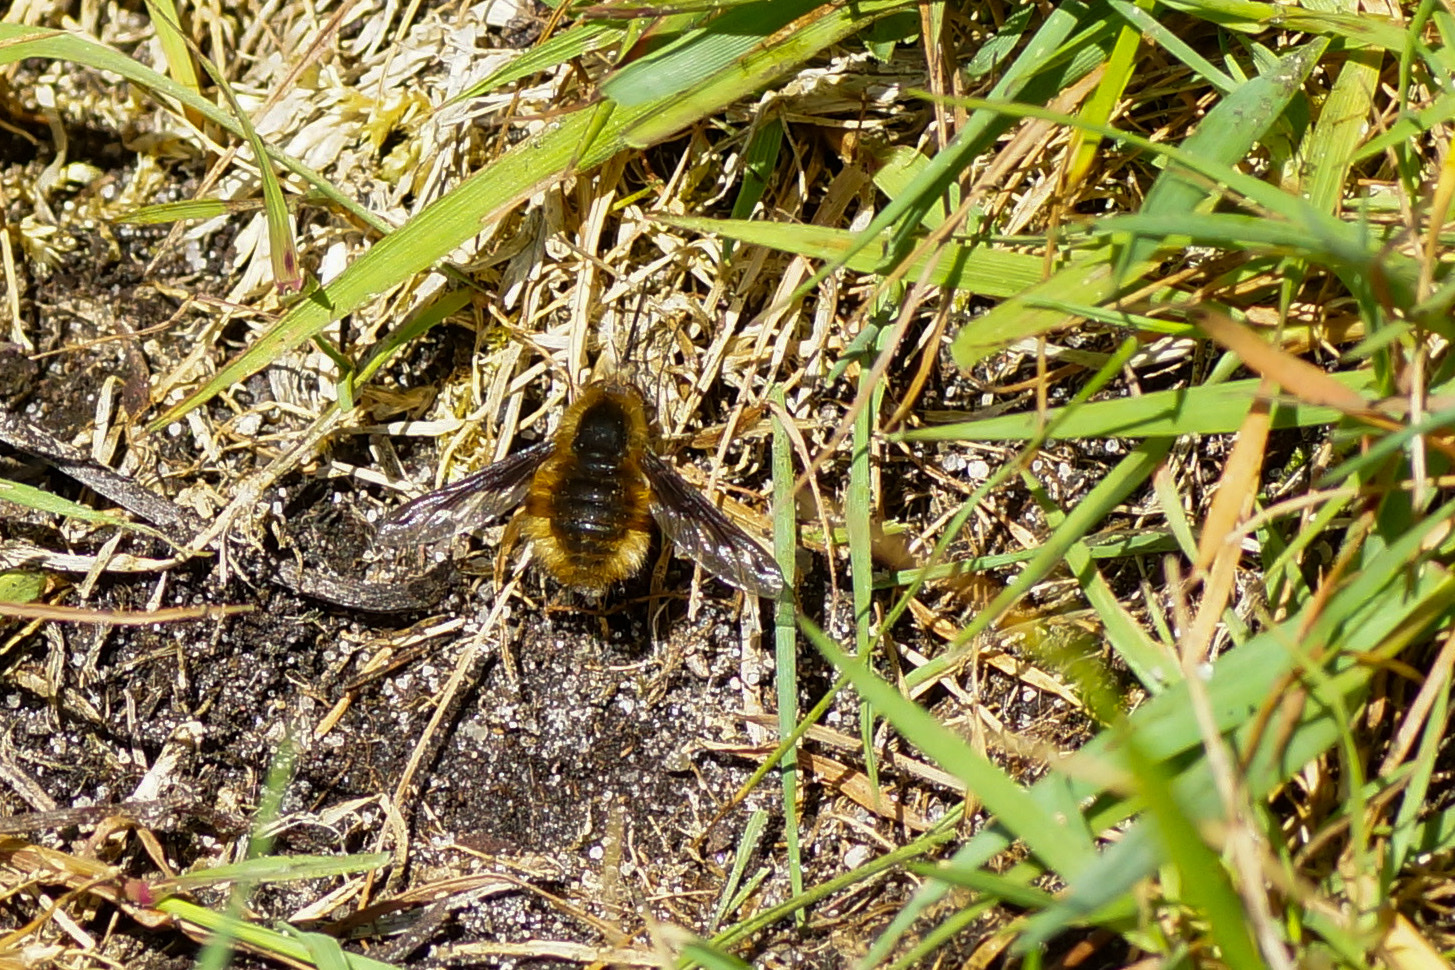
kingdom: Animalia
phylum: Arthropoda
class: Insecta
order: Diptera
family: Bombyliidae
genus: Bombylius
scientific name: Bombylius major
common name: Bee fly
